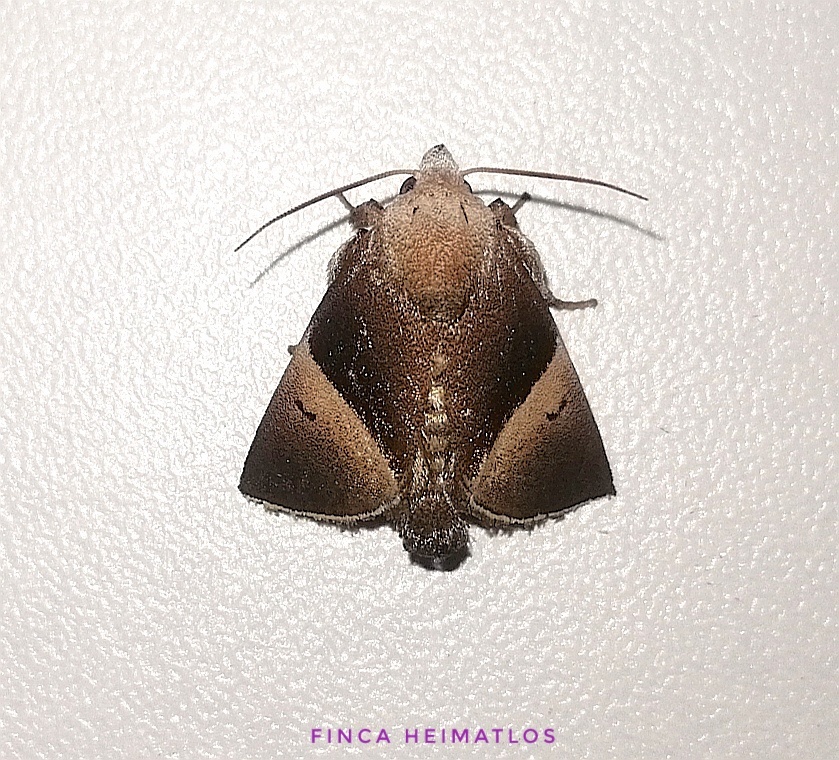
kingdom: Animalia
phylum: Arthropoda
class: Insecta
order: Lepidoptera
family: Limacodidae
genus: Dichromapteryx
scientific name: Dichromapteryx didyma
